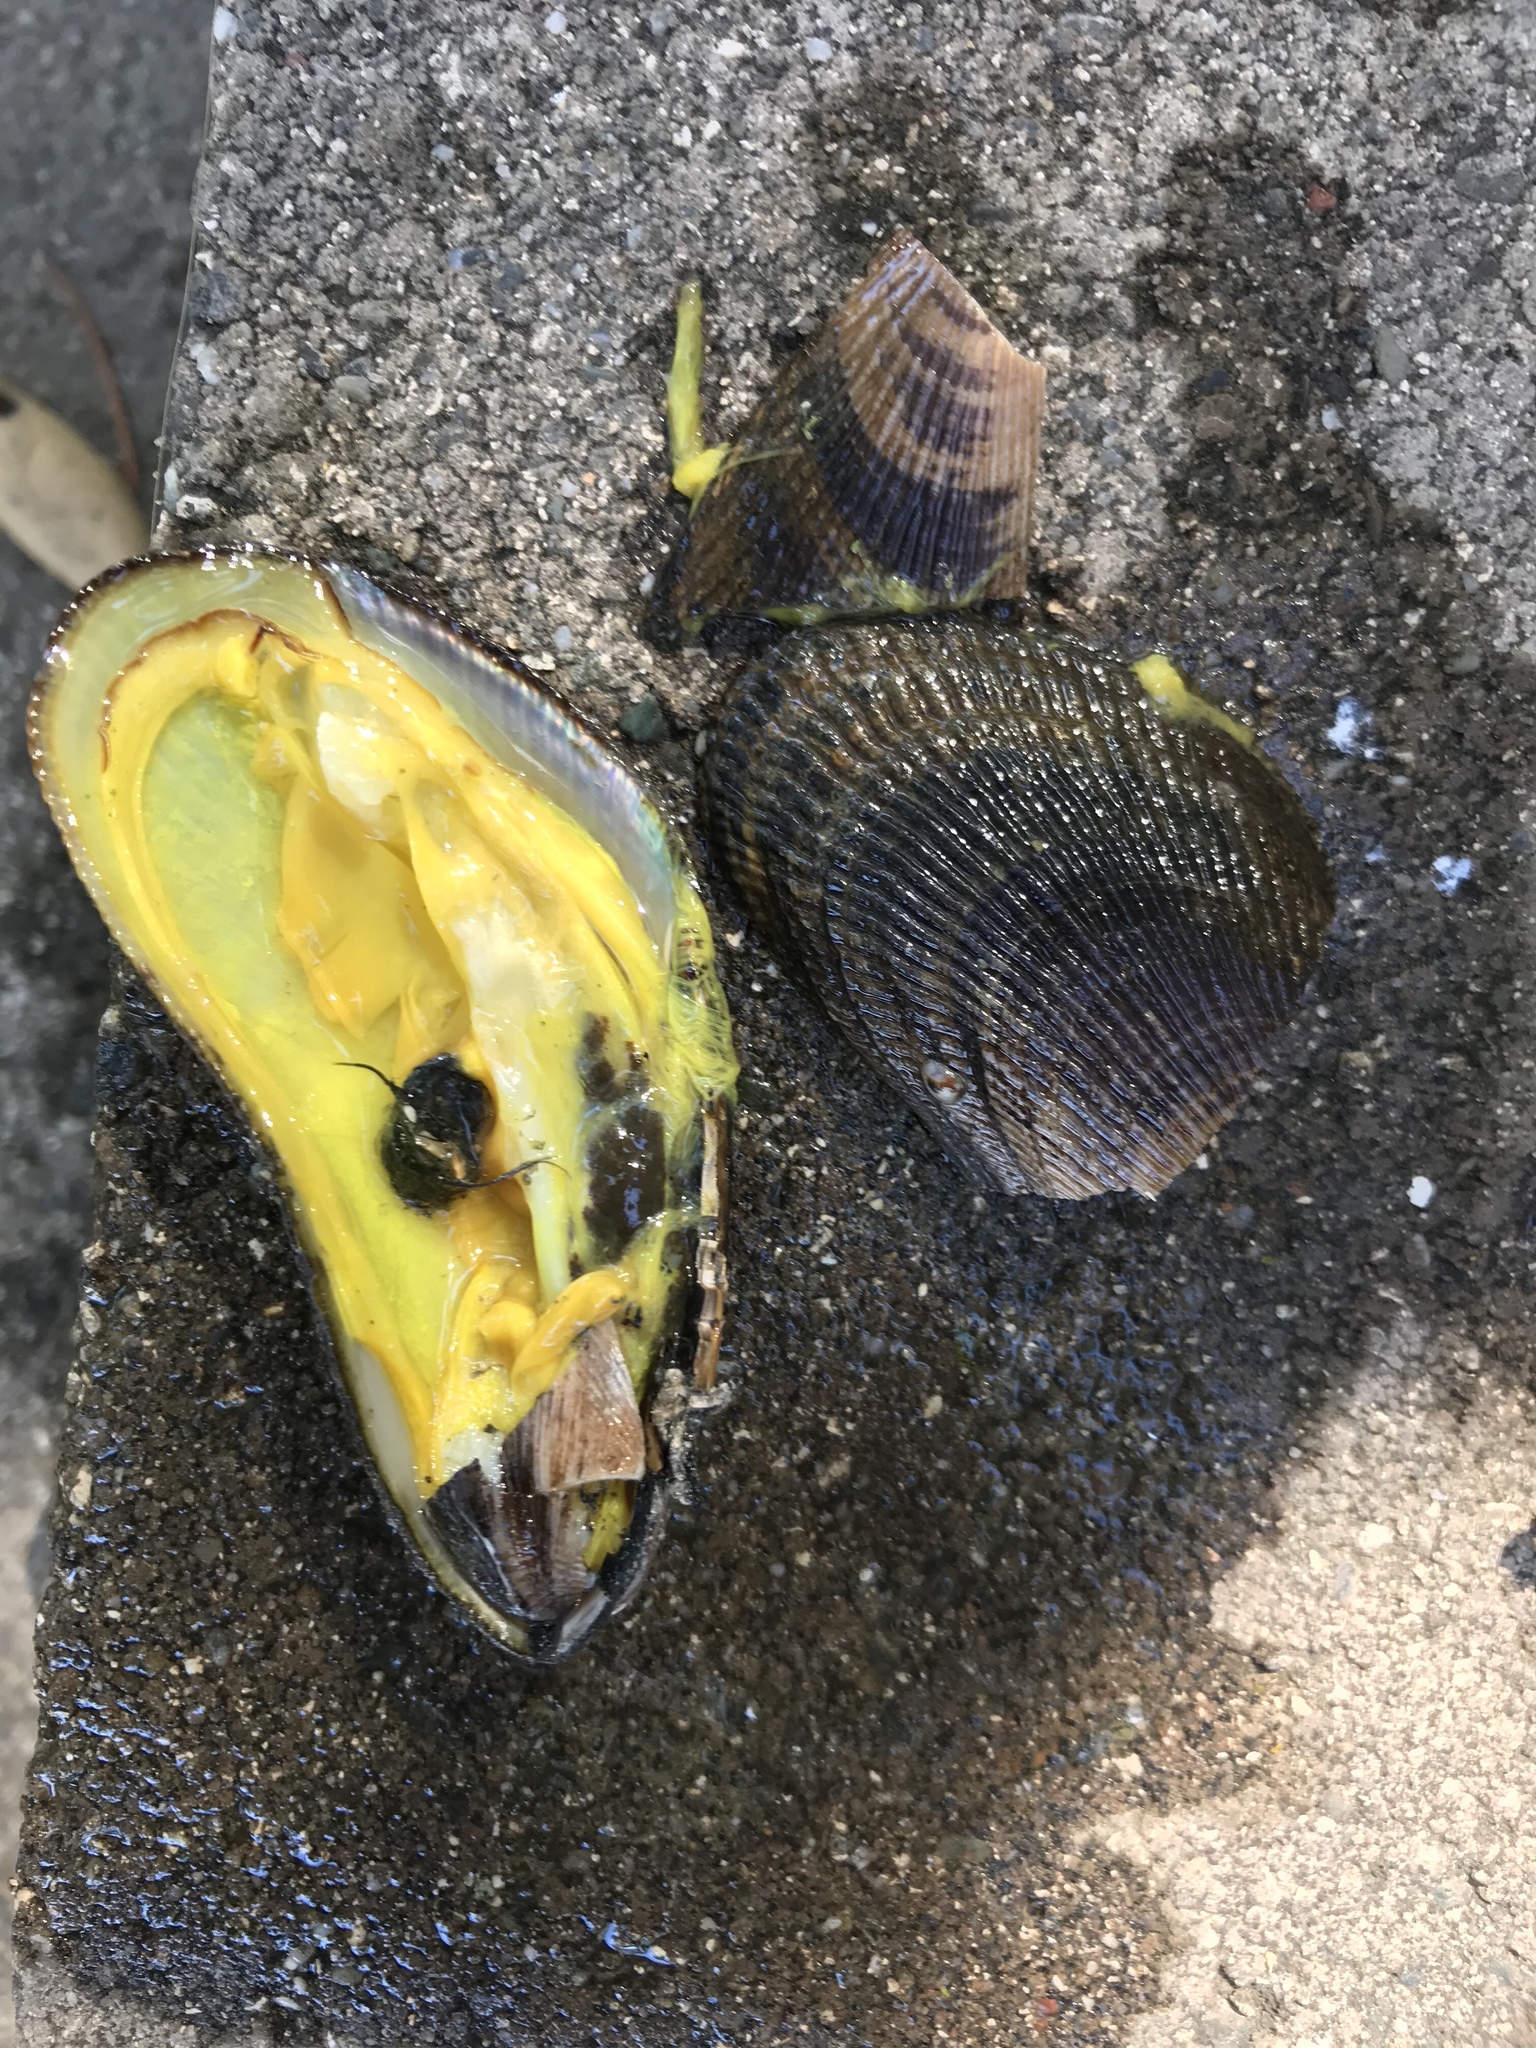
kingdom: Animalia
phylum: Mollusca
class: Bivalvia
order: Mytilida
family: Mytilidae
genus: Geukensia
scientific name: Geukensia demissa
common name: Ribbed mussel
